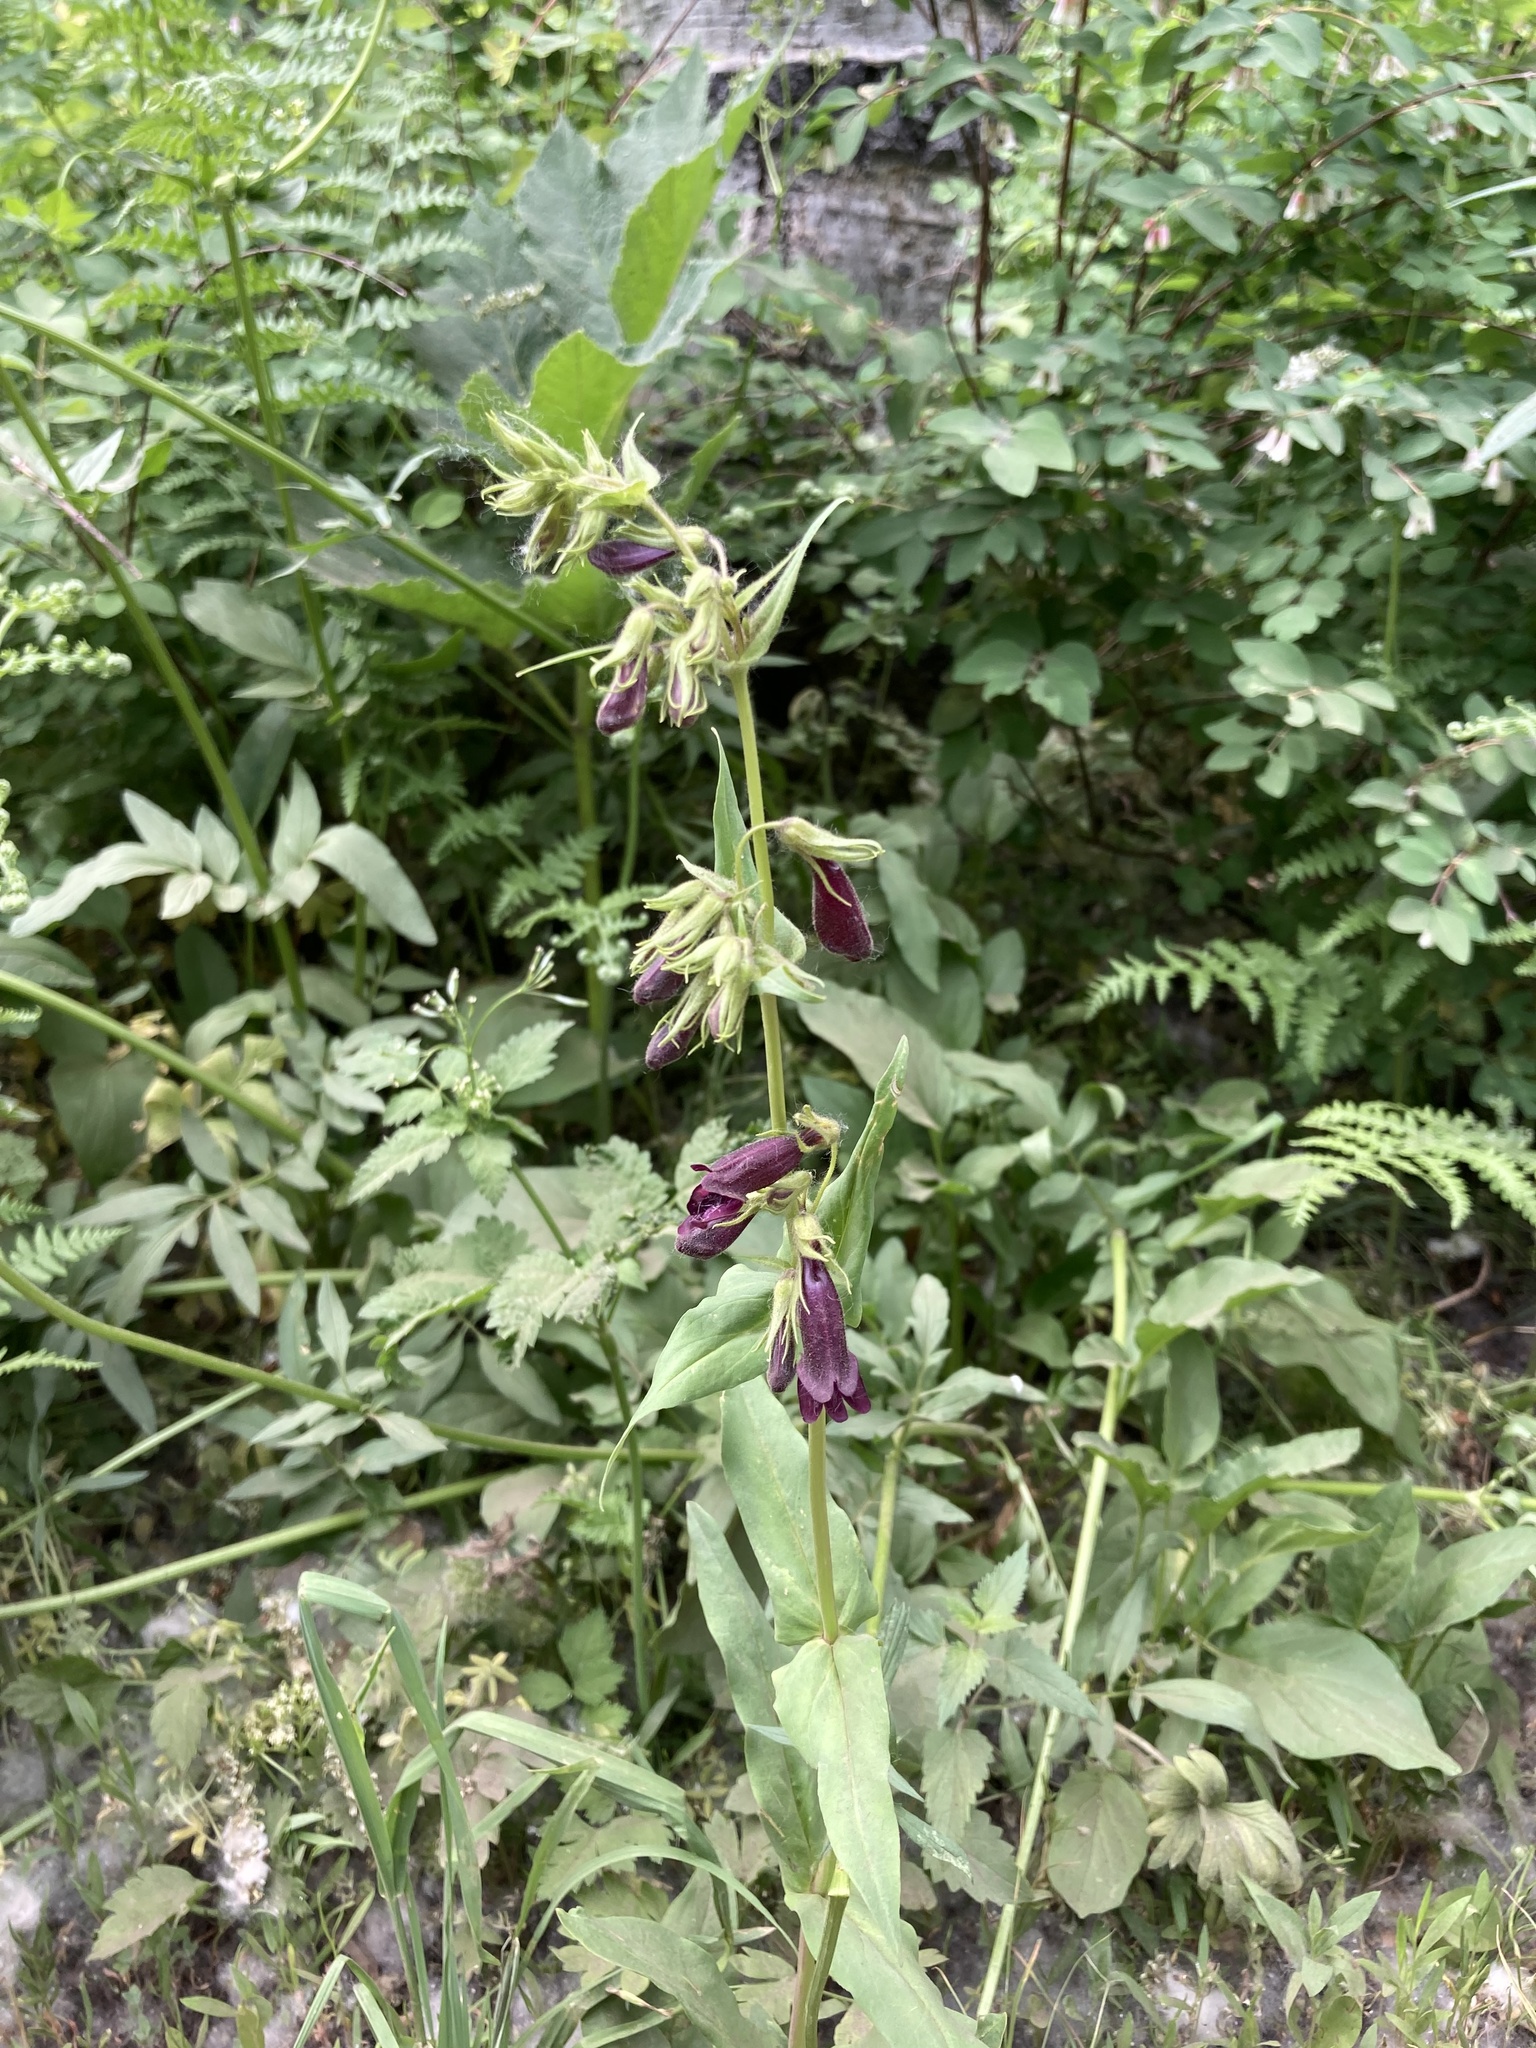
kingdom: Plantae
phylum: Tracheophyta
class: Magnoliopsida
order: Lamiales
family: Plantaginaceae
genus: Penstemon
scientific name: Penstemon whippleanus
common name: Whipple's penstemon
